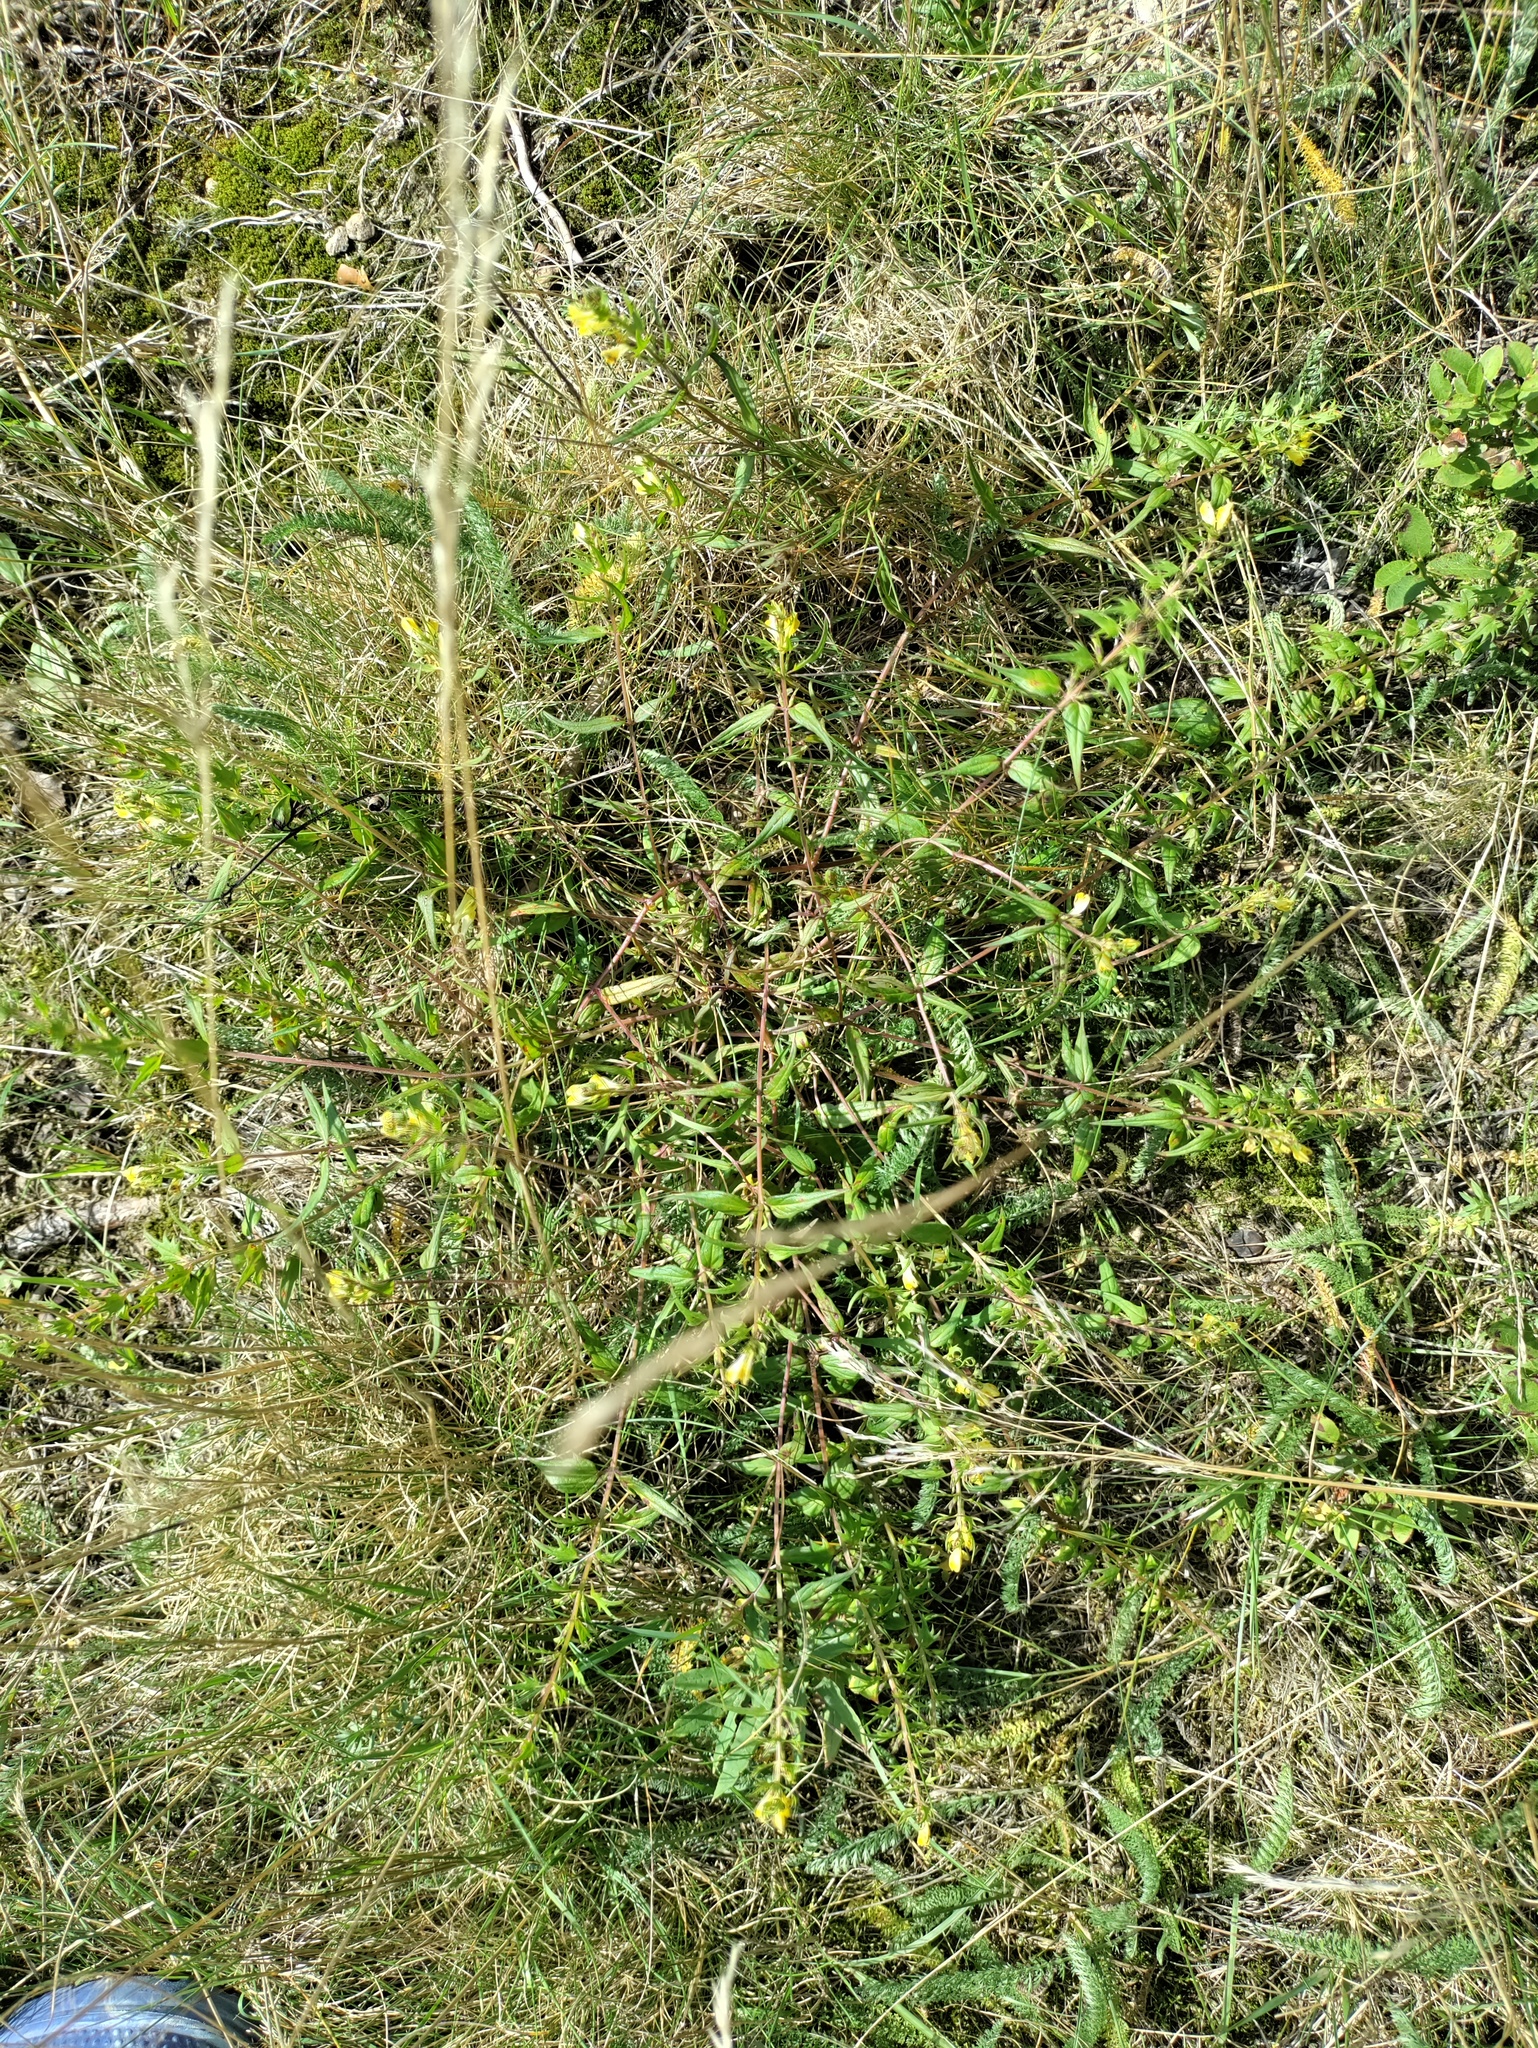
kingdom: Plantae
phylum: Tracheophyta
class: Magnoliopsida
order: Lamiales
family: Orobanchaceae
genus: Melampyrum
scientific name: Melampyrum pratense
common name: Common cow-wheat
